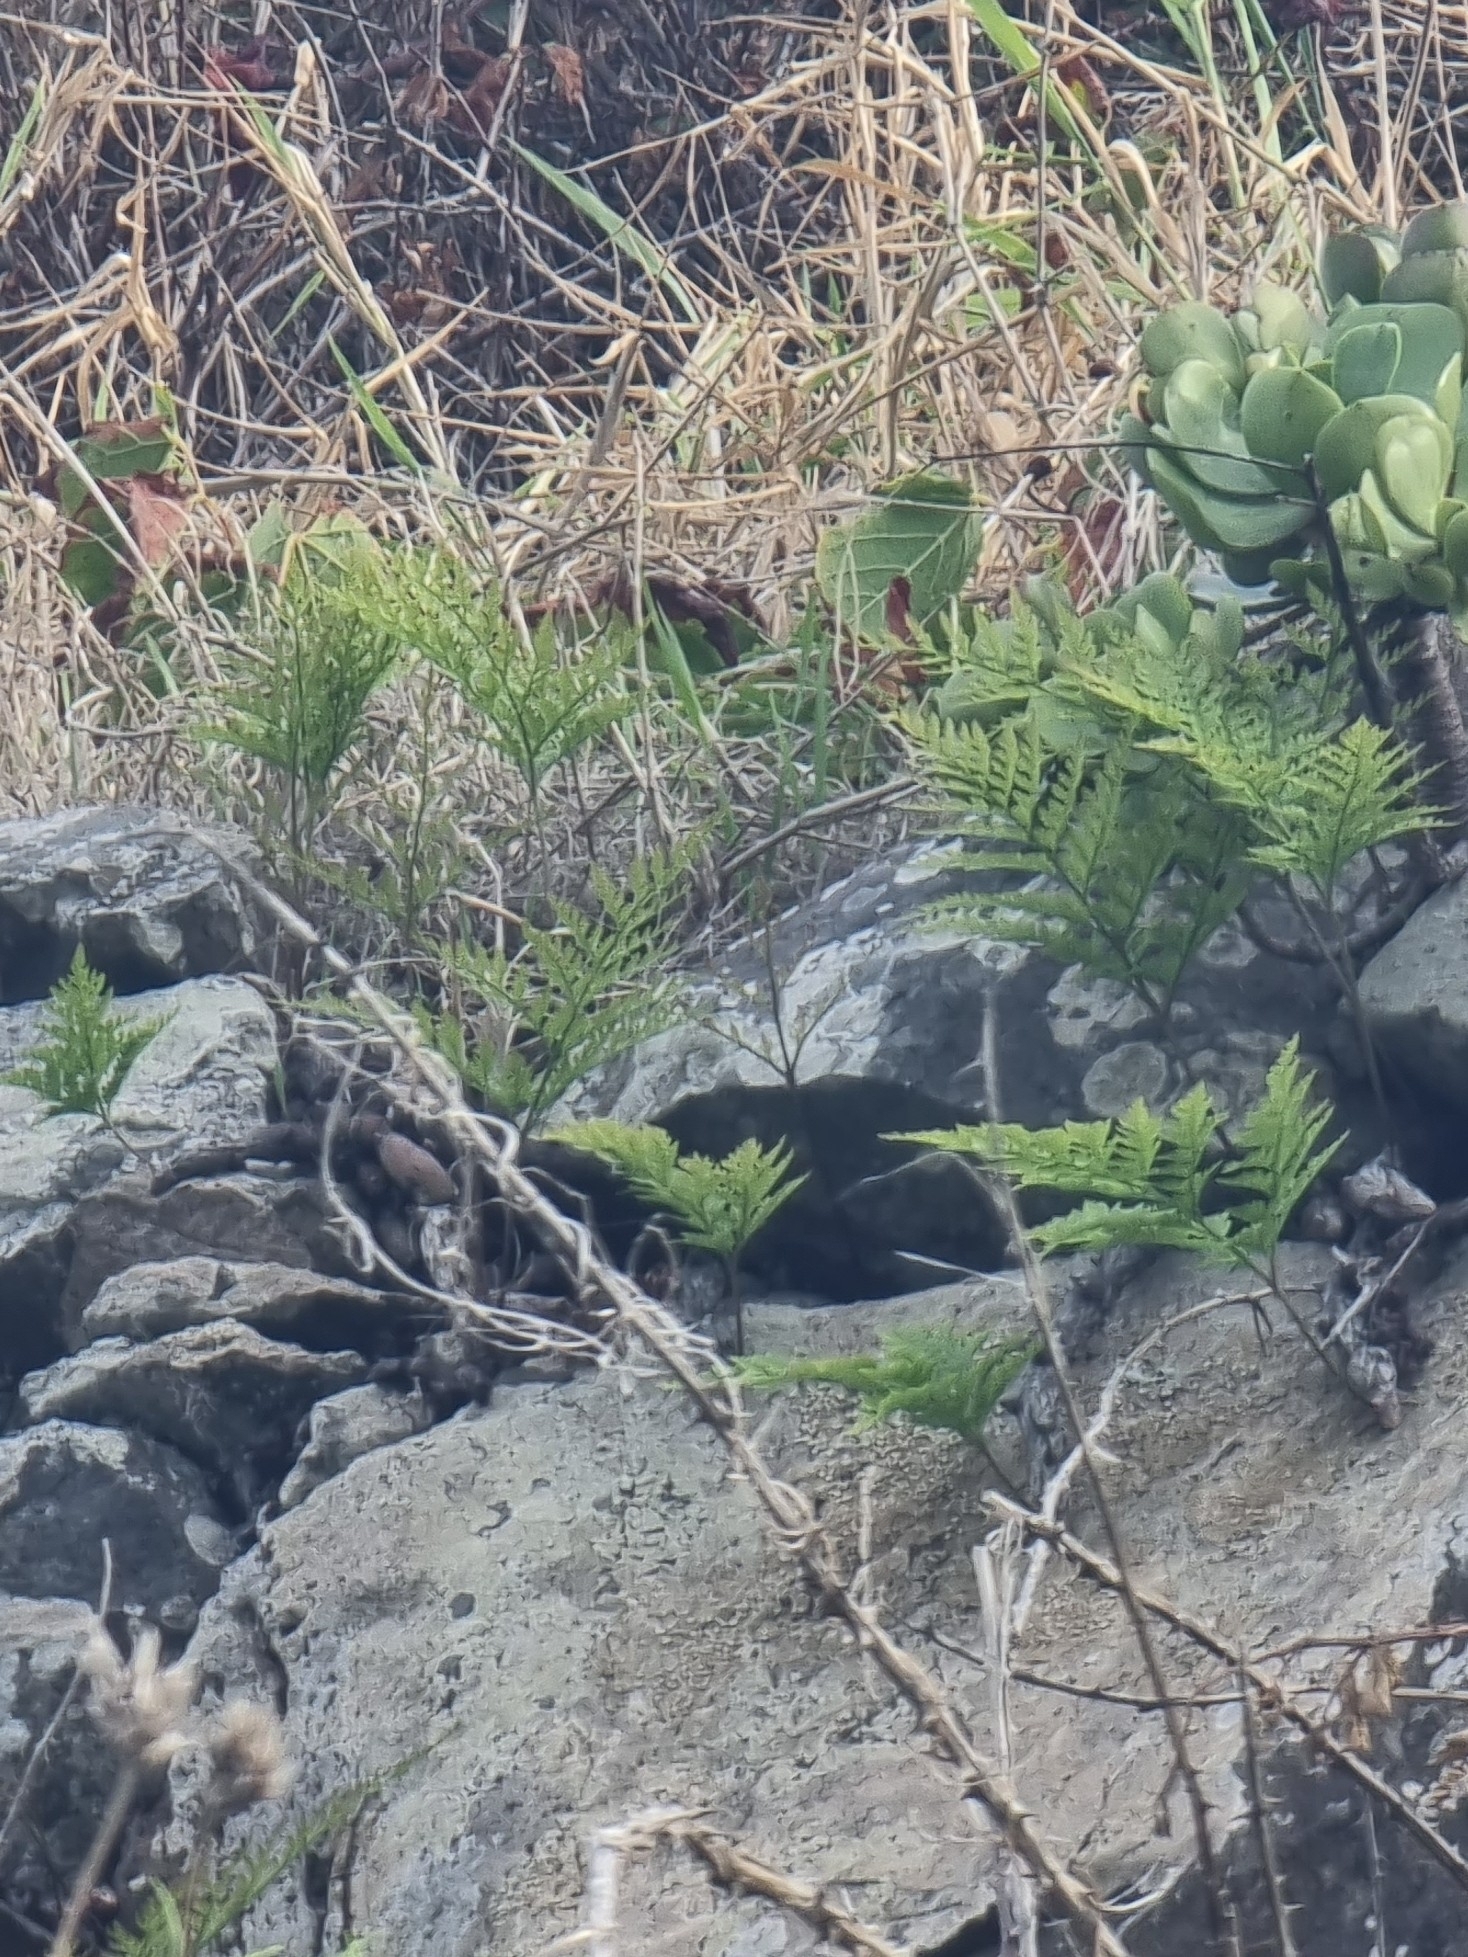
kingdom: Plantae
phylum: Tracheophyta
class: Polypodiopsida
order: Polypodiales
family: Davalliaceae
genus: Davallia
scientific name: Davallia canariensis
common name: Hare's-foot fern
